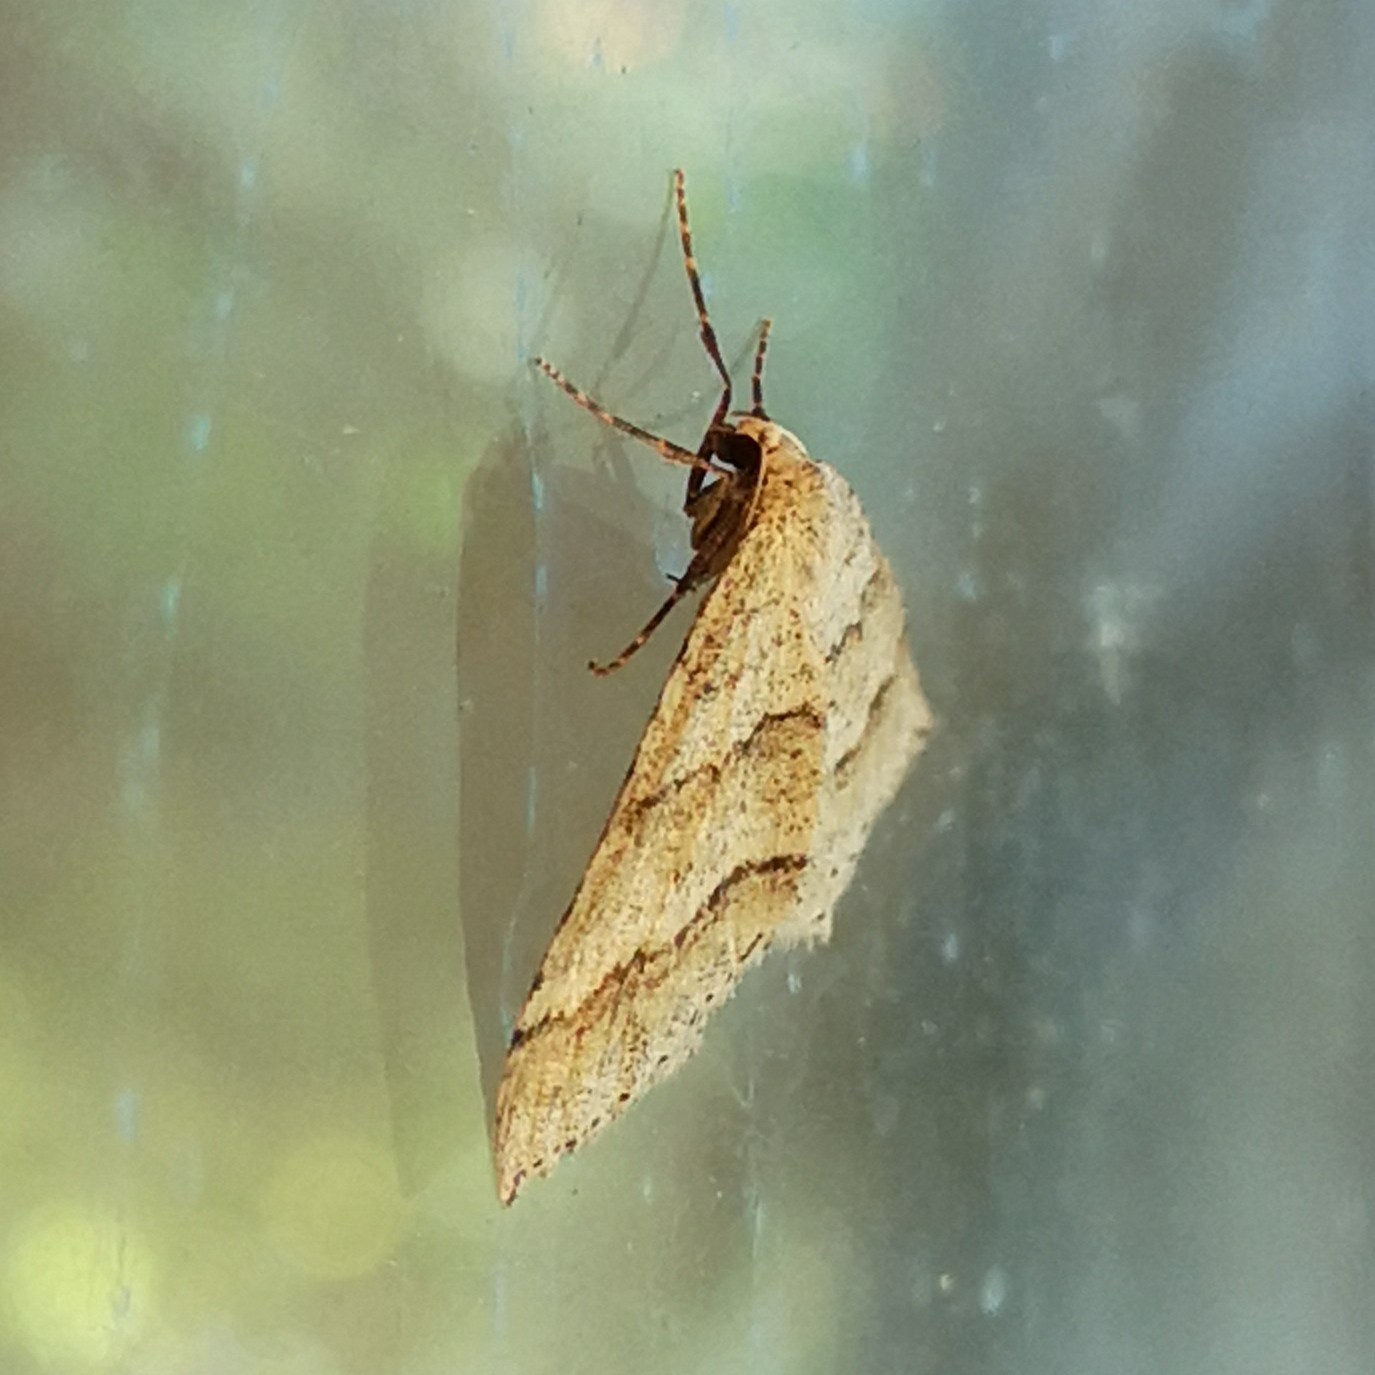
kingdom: Animalia
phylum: Arthropoda
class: Insecta
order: Lepidoptera
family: Geometridae
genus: Perizoma
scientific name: Perizoma parallelolineata
